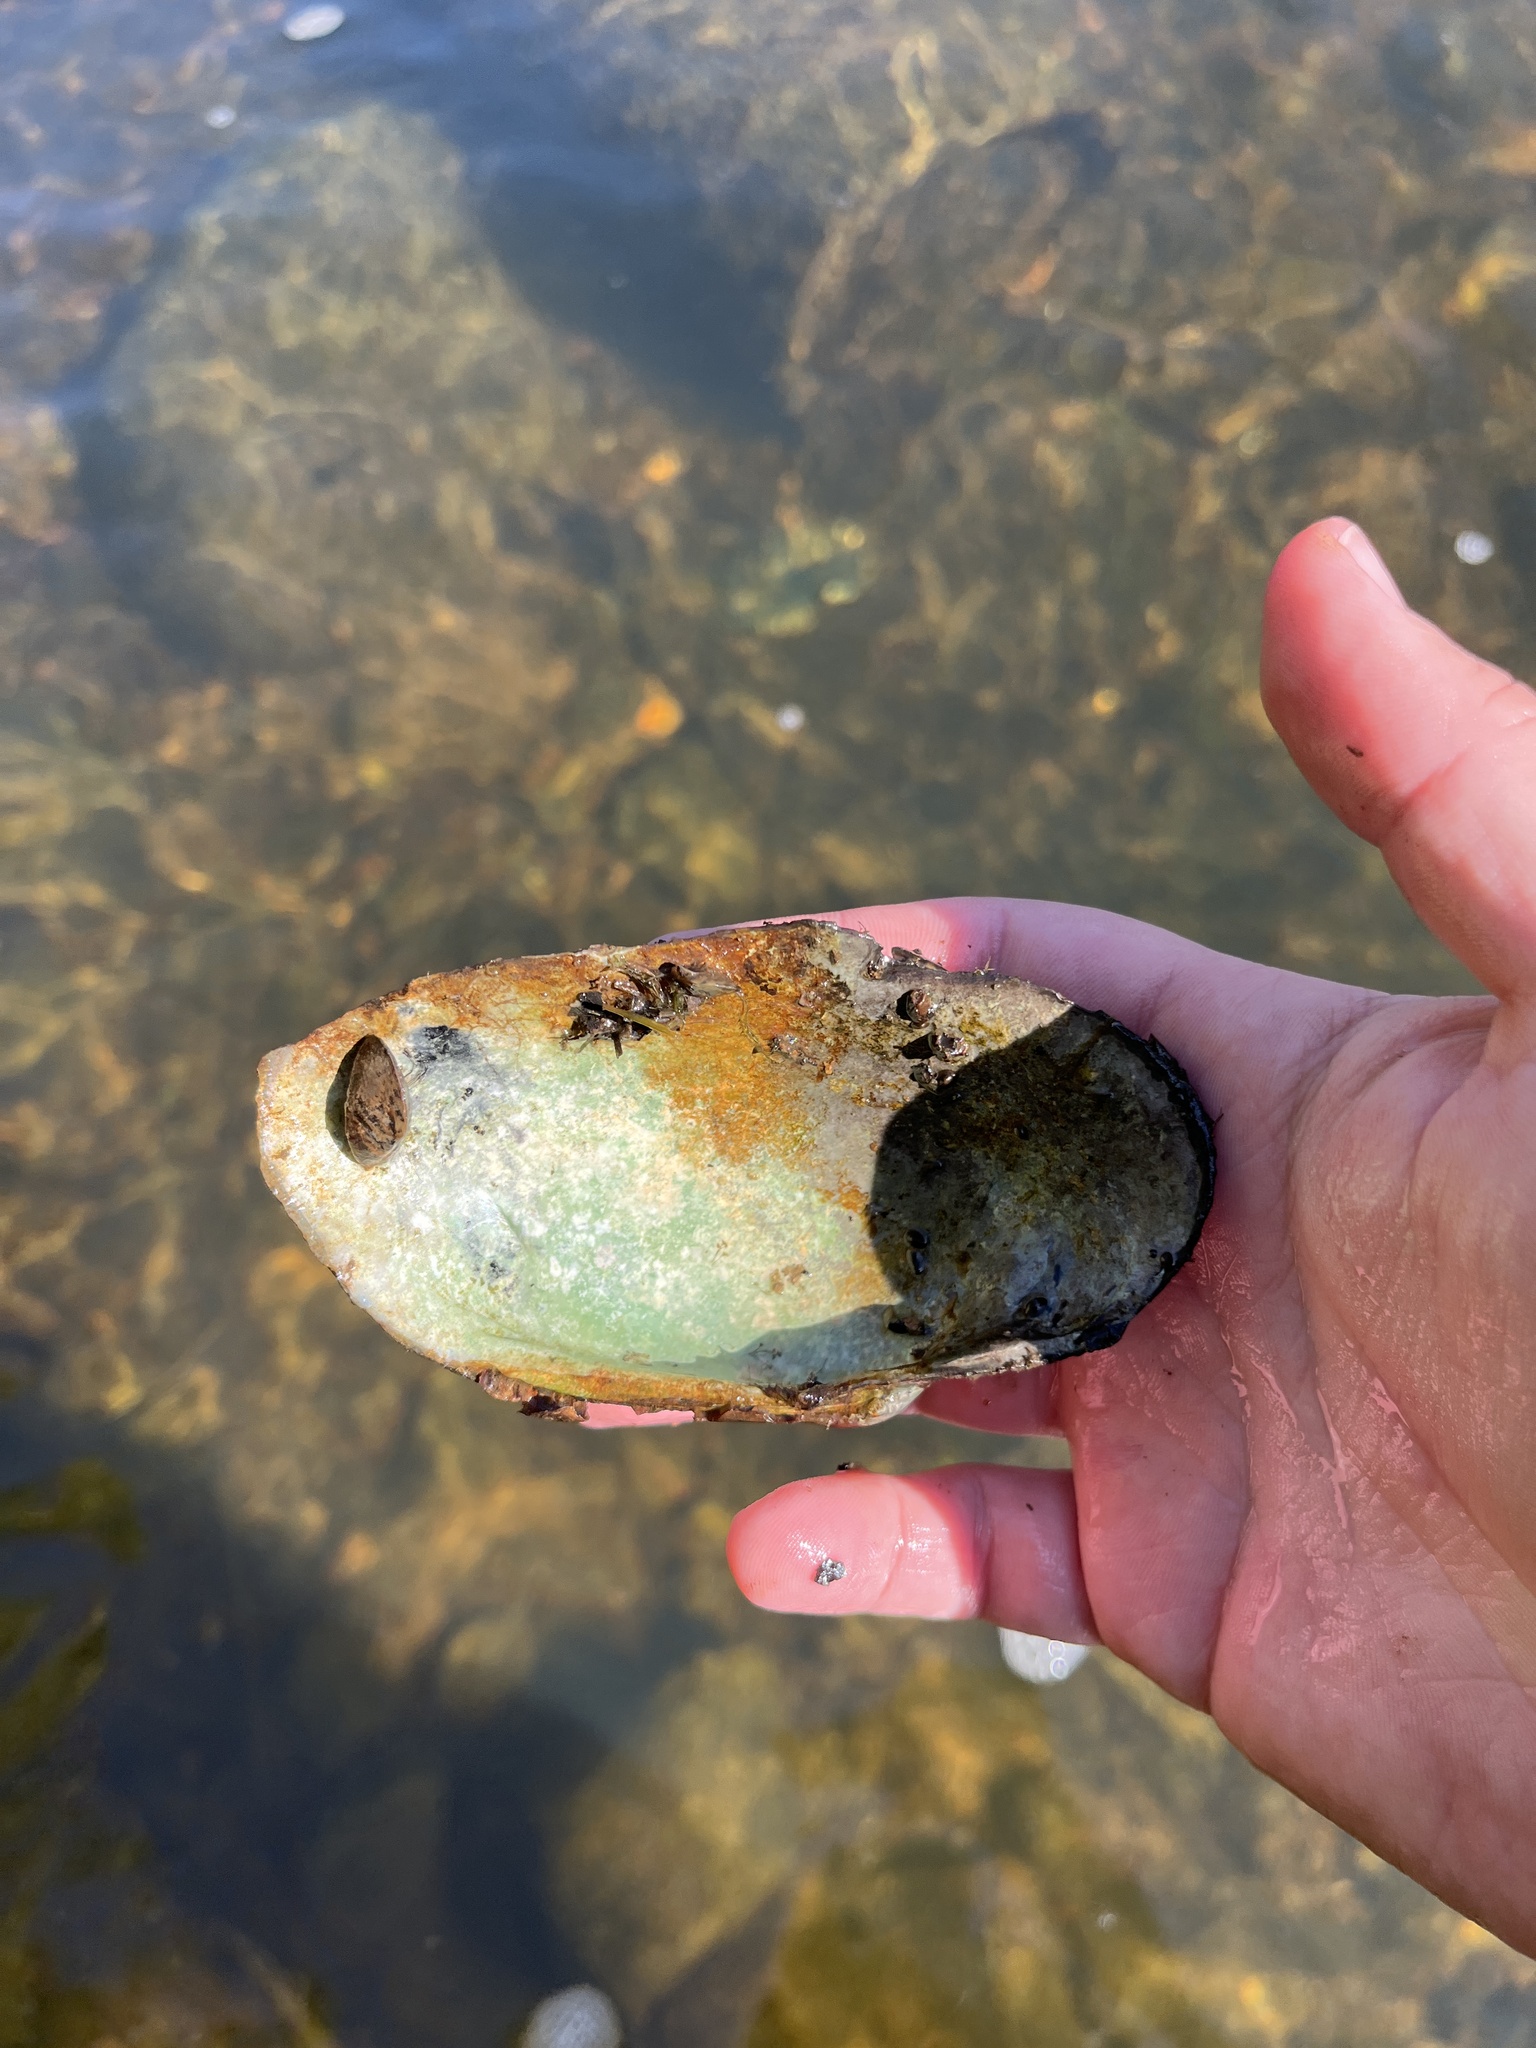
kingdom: Animalia
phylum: Mollusca
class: Bivalvia
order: Unionida
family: Unionidae
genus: Strophitus
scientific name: Strophitus undulatus
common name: Creeper
